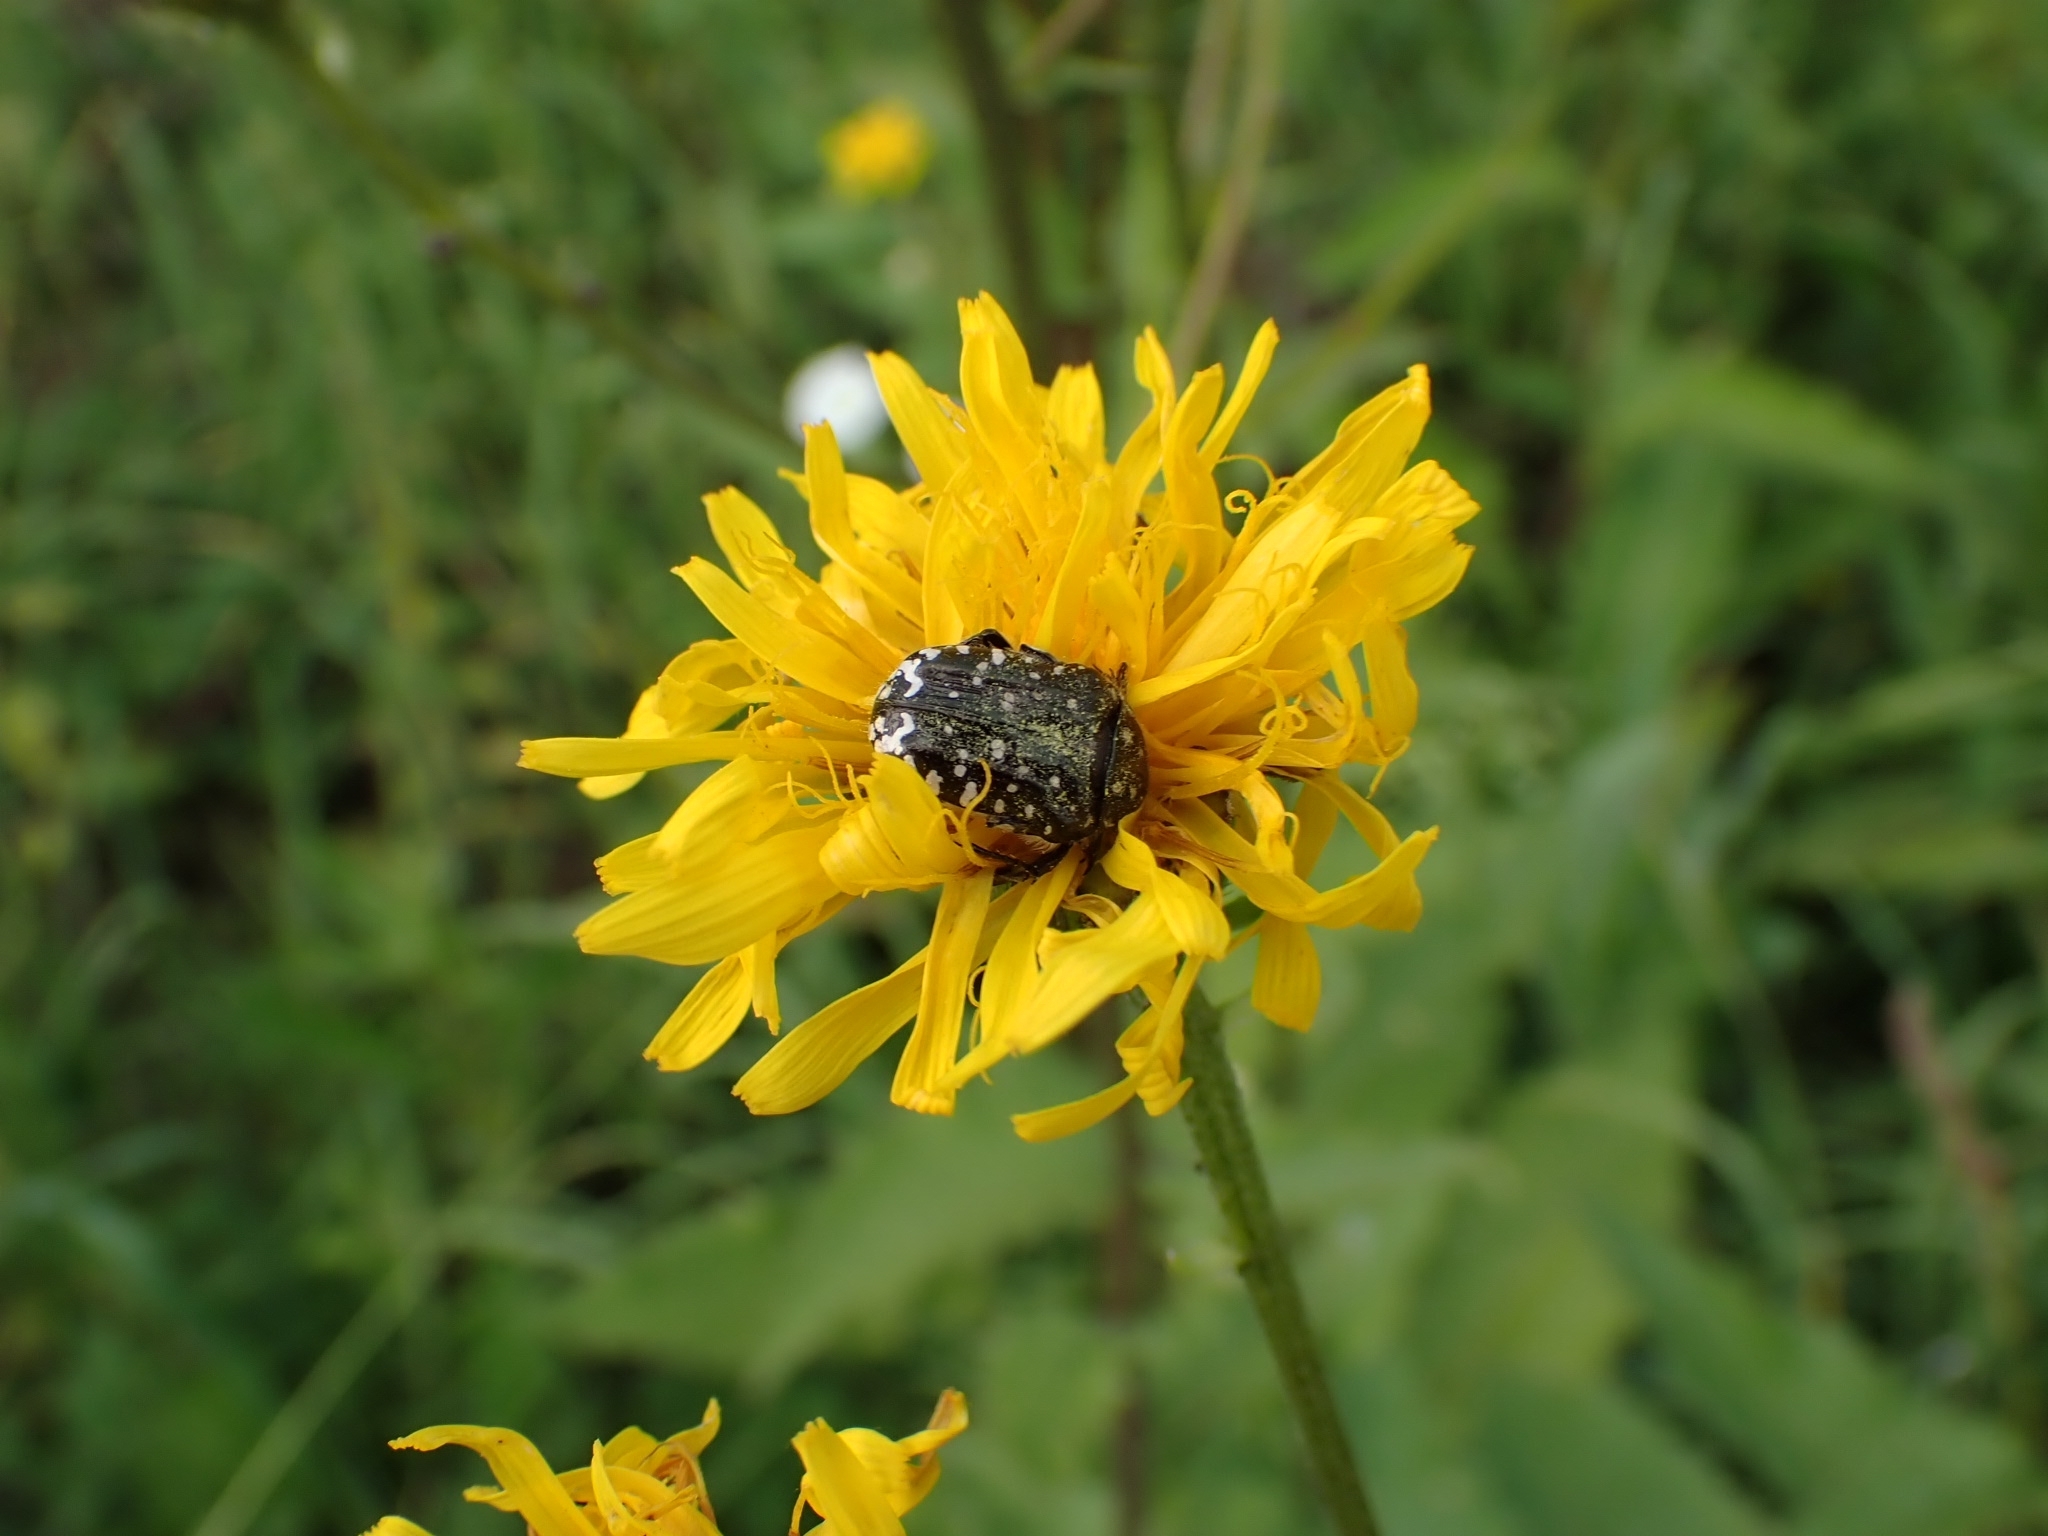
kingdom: Animalia
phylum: Arthropoda
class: Insecta
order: Coleoptera
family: Scarabaeidae
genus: Oxythyrea
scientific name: Oxythyrea funesta
